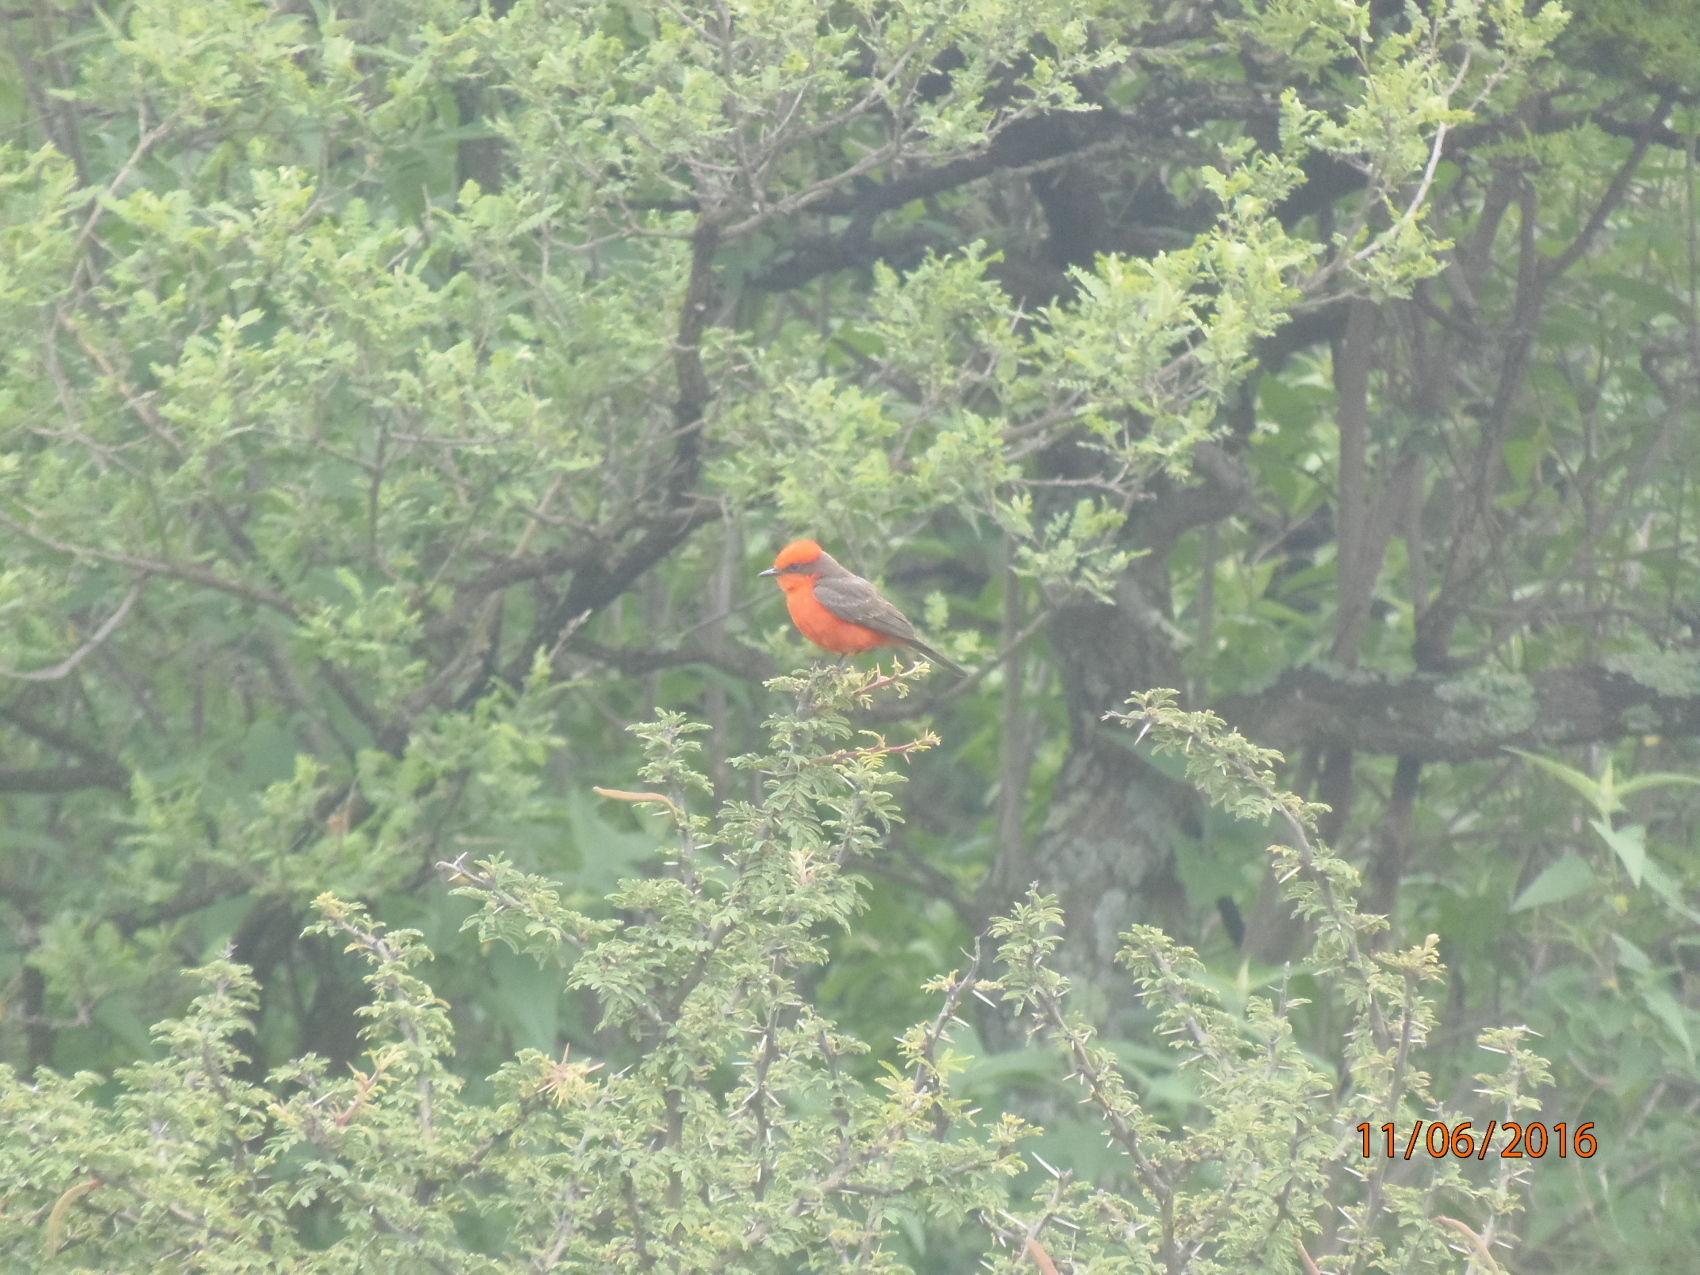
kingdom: Animalia
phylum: Chordata
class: Aves
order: Passeriformes
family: Tyrannidae
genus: Pyrocephalus
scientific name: Pyrocephalus rubinus
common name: Vermilion flycatcher
